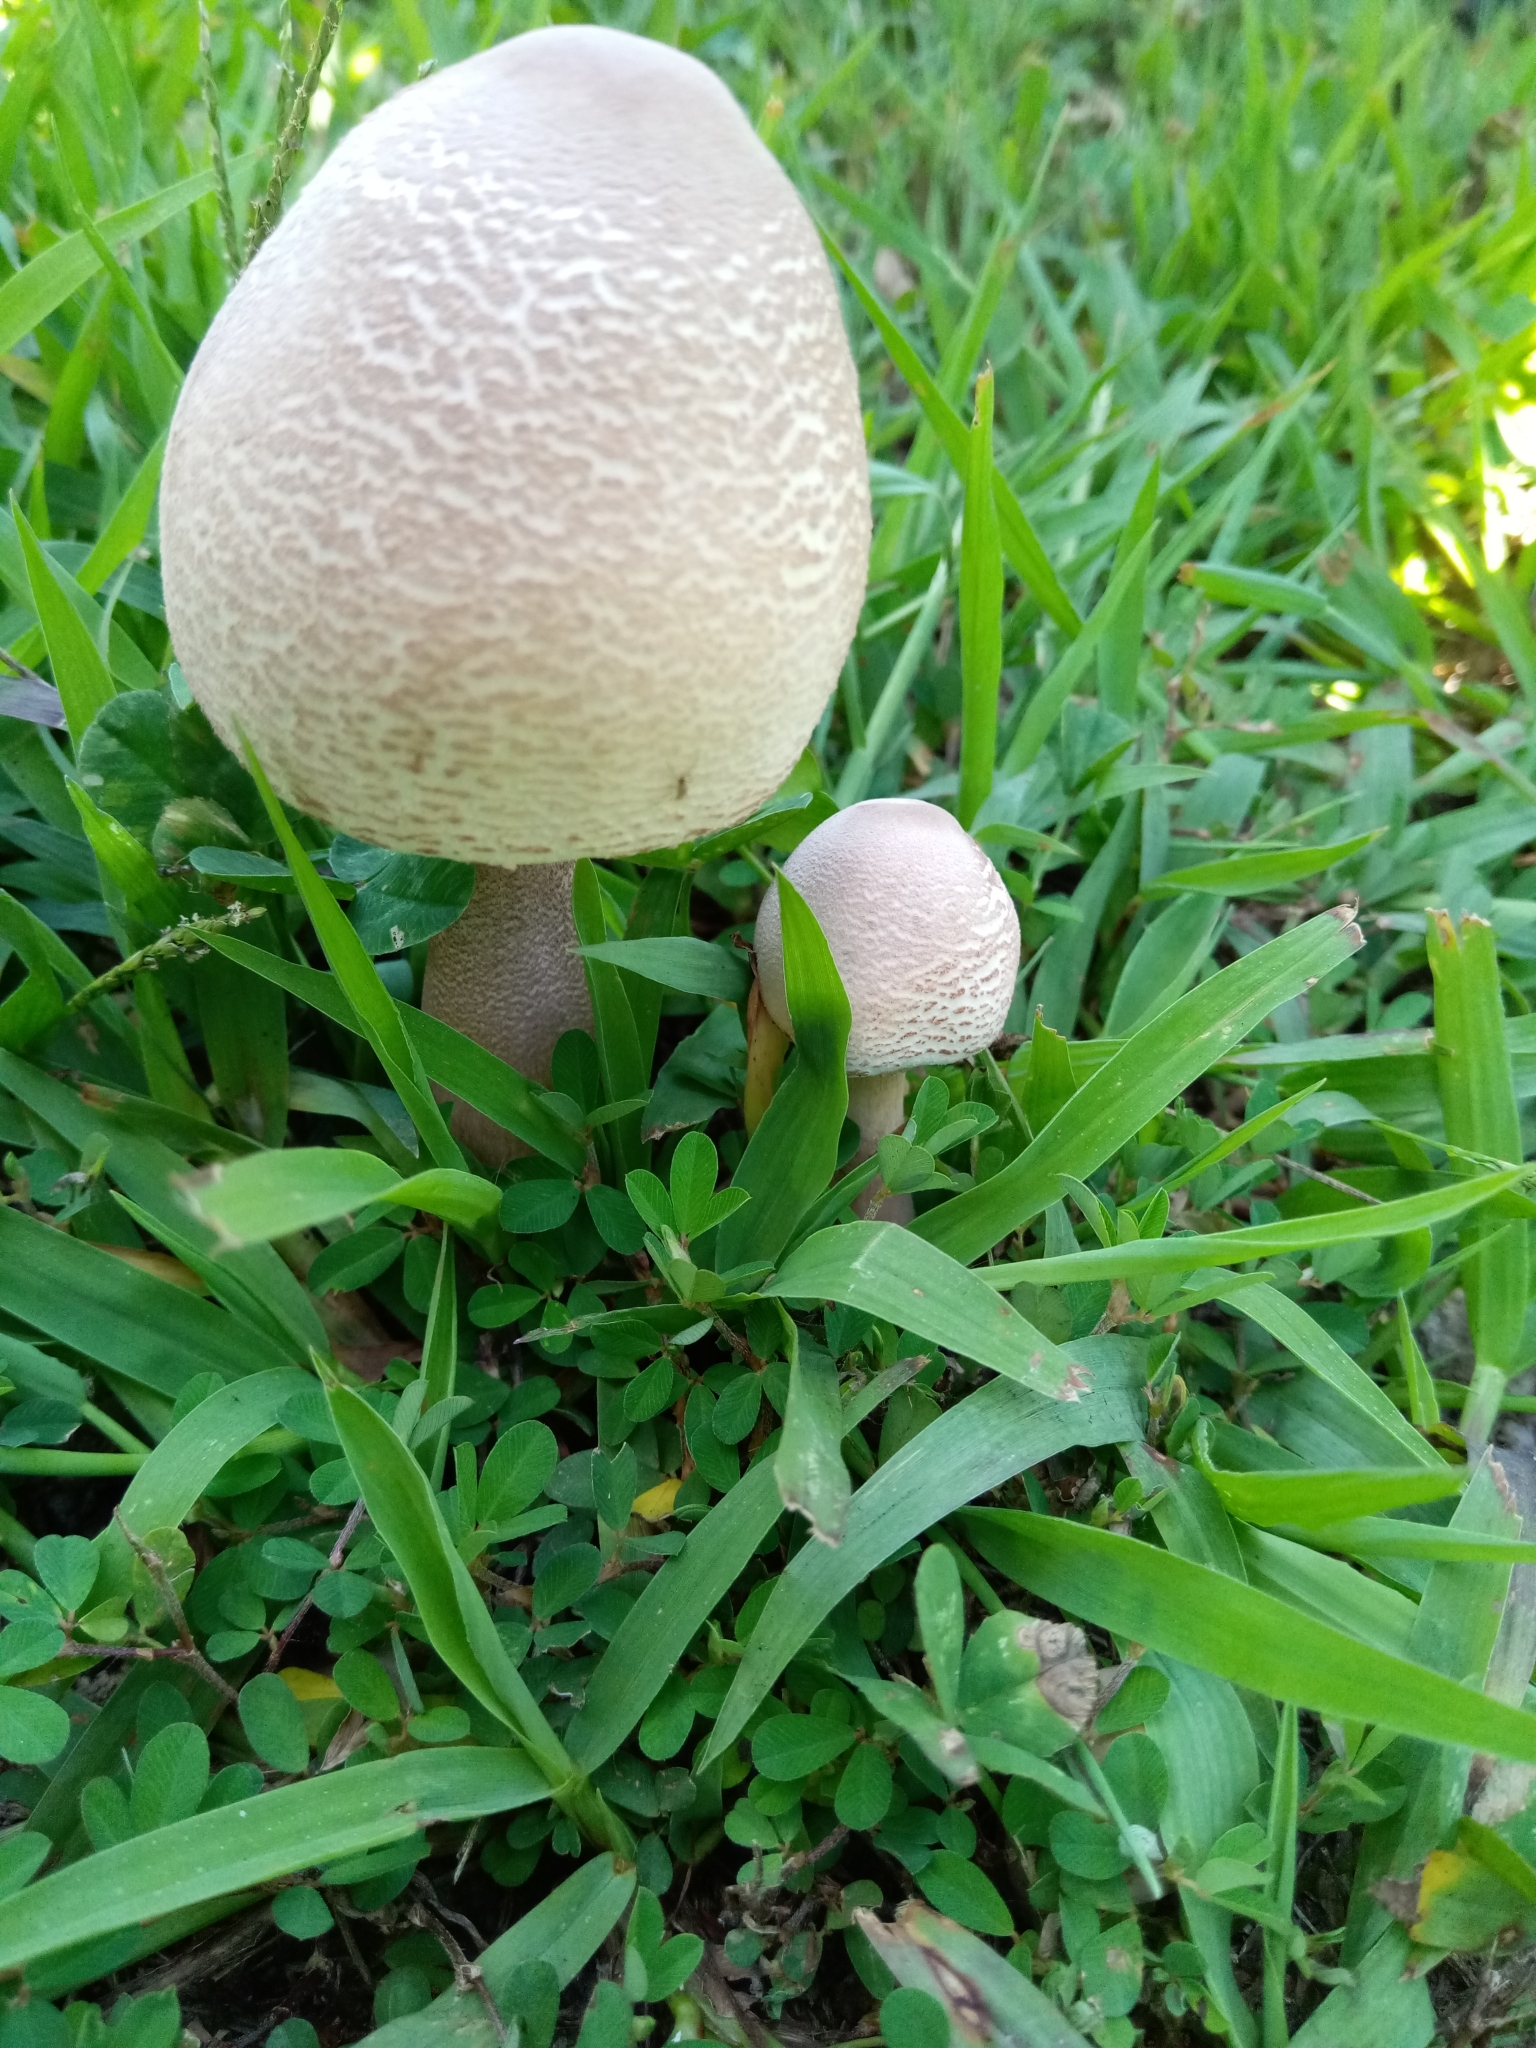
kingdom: Fungi
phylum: Basidiomycota
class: Agaricomycetes
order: Agaricales
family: Agaricaceae
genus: Leucoagaricus
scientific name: Leucoagaricus americanus
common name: Reddening lepiota
